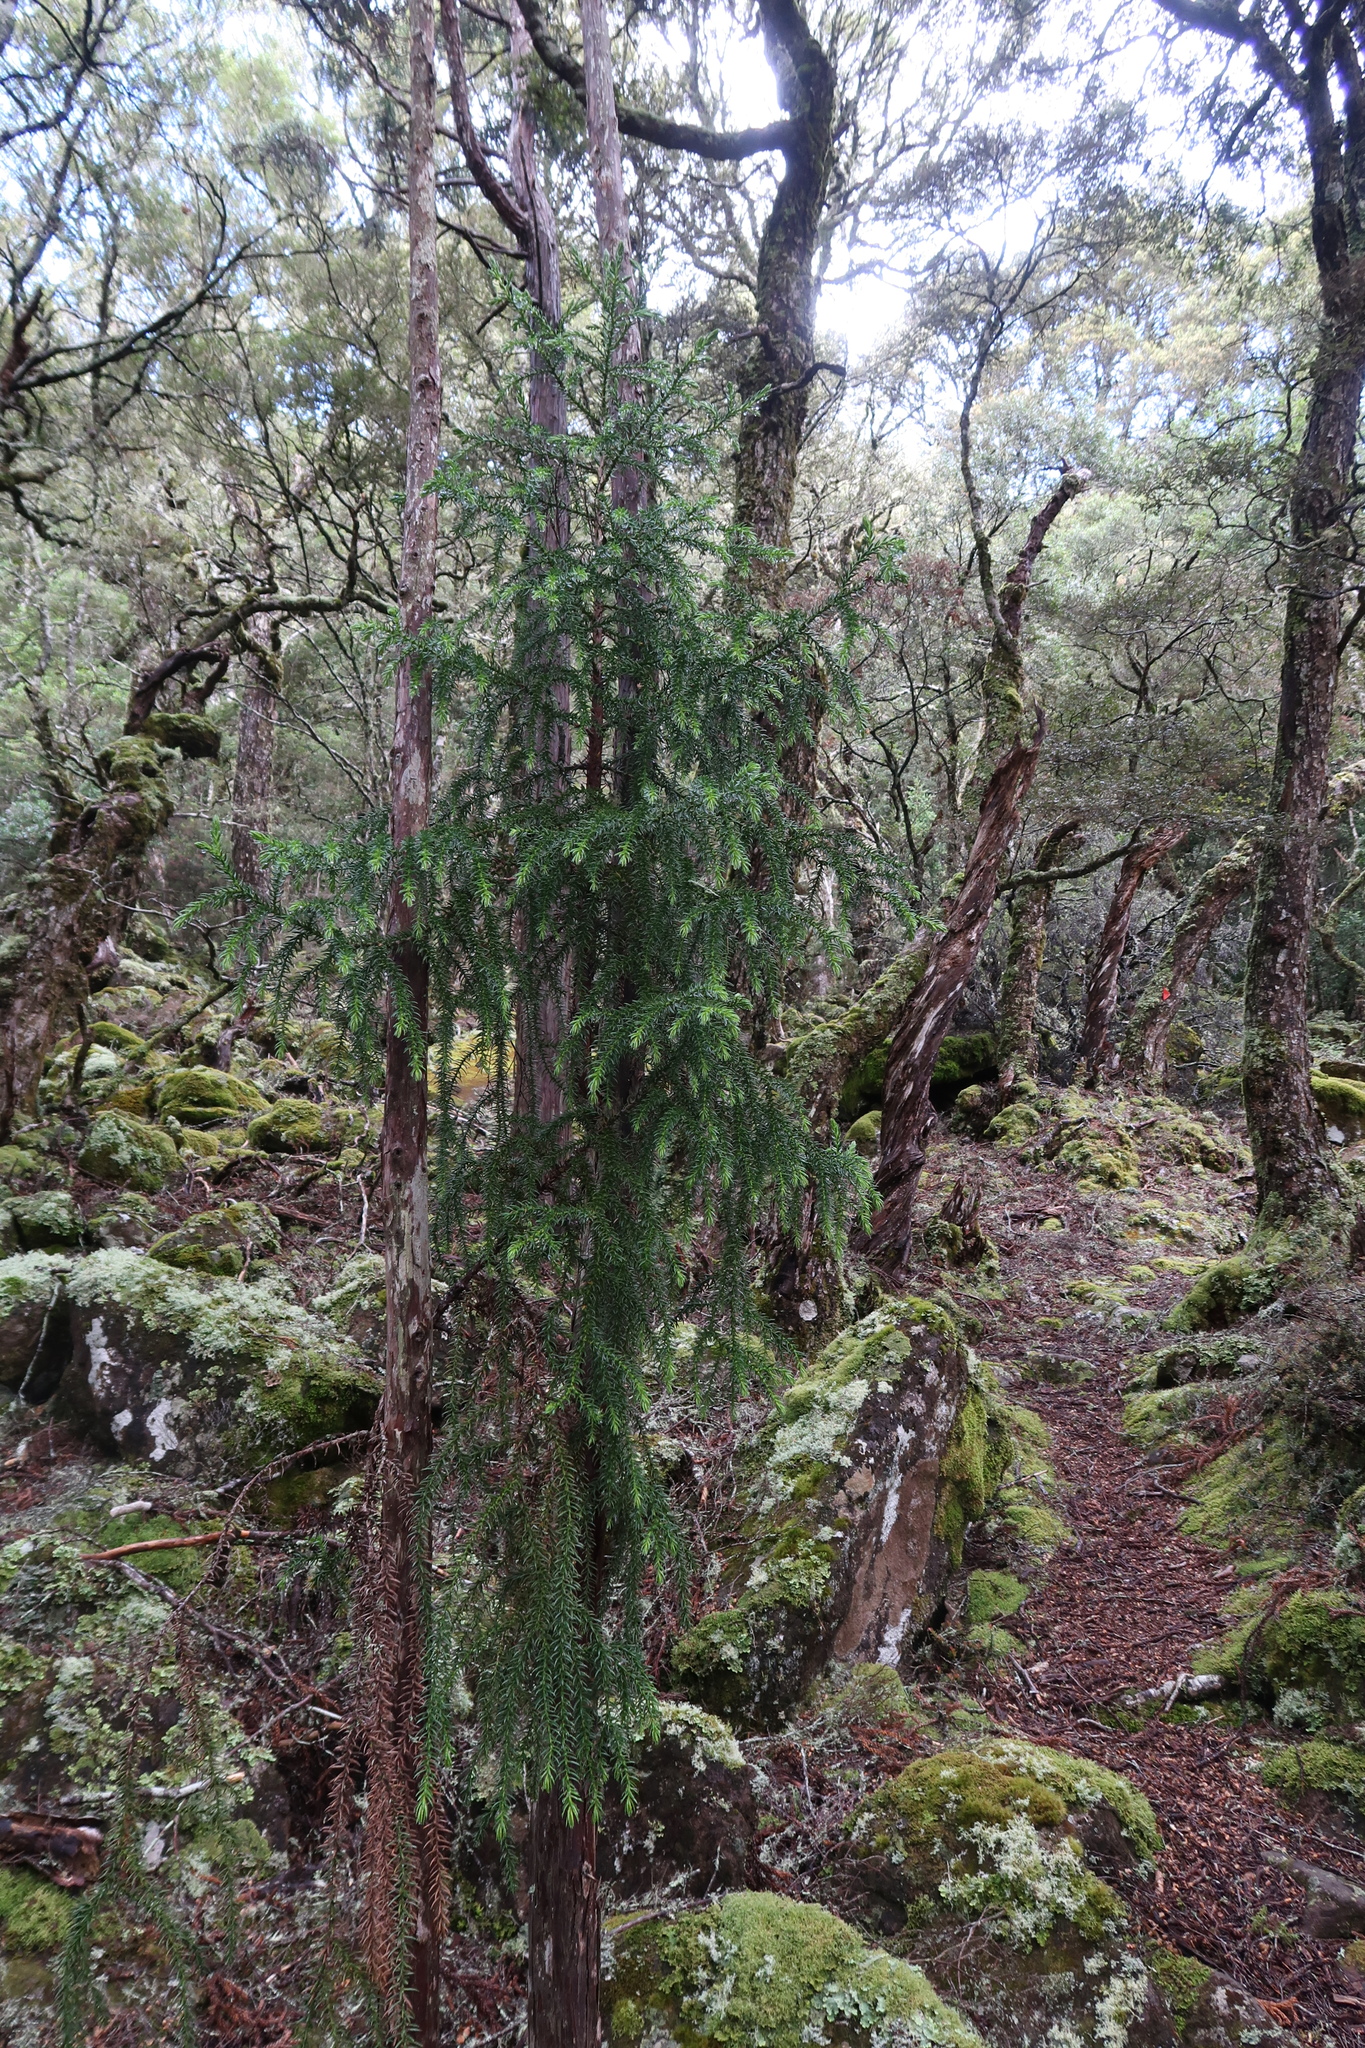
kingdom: Plantae
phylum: Tracheophyta
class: Pinopsida
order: Pinales
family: Cupressaceae
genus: Athrotaxis
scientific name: Athrotaxis selaginoides
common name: King william pine
